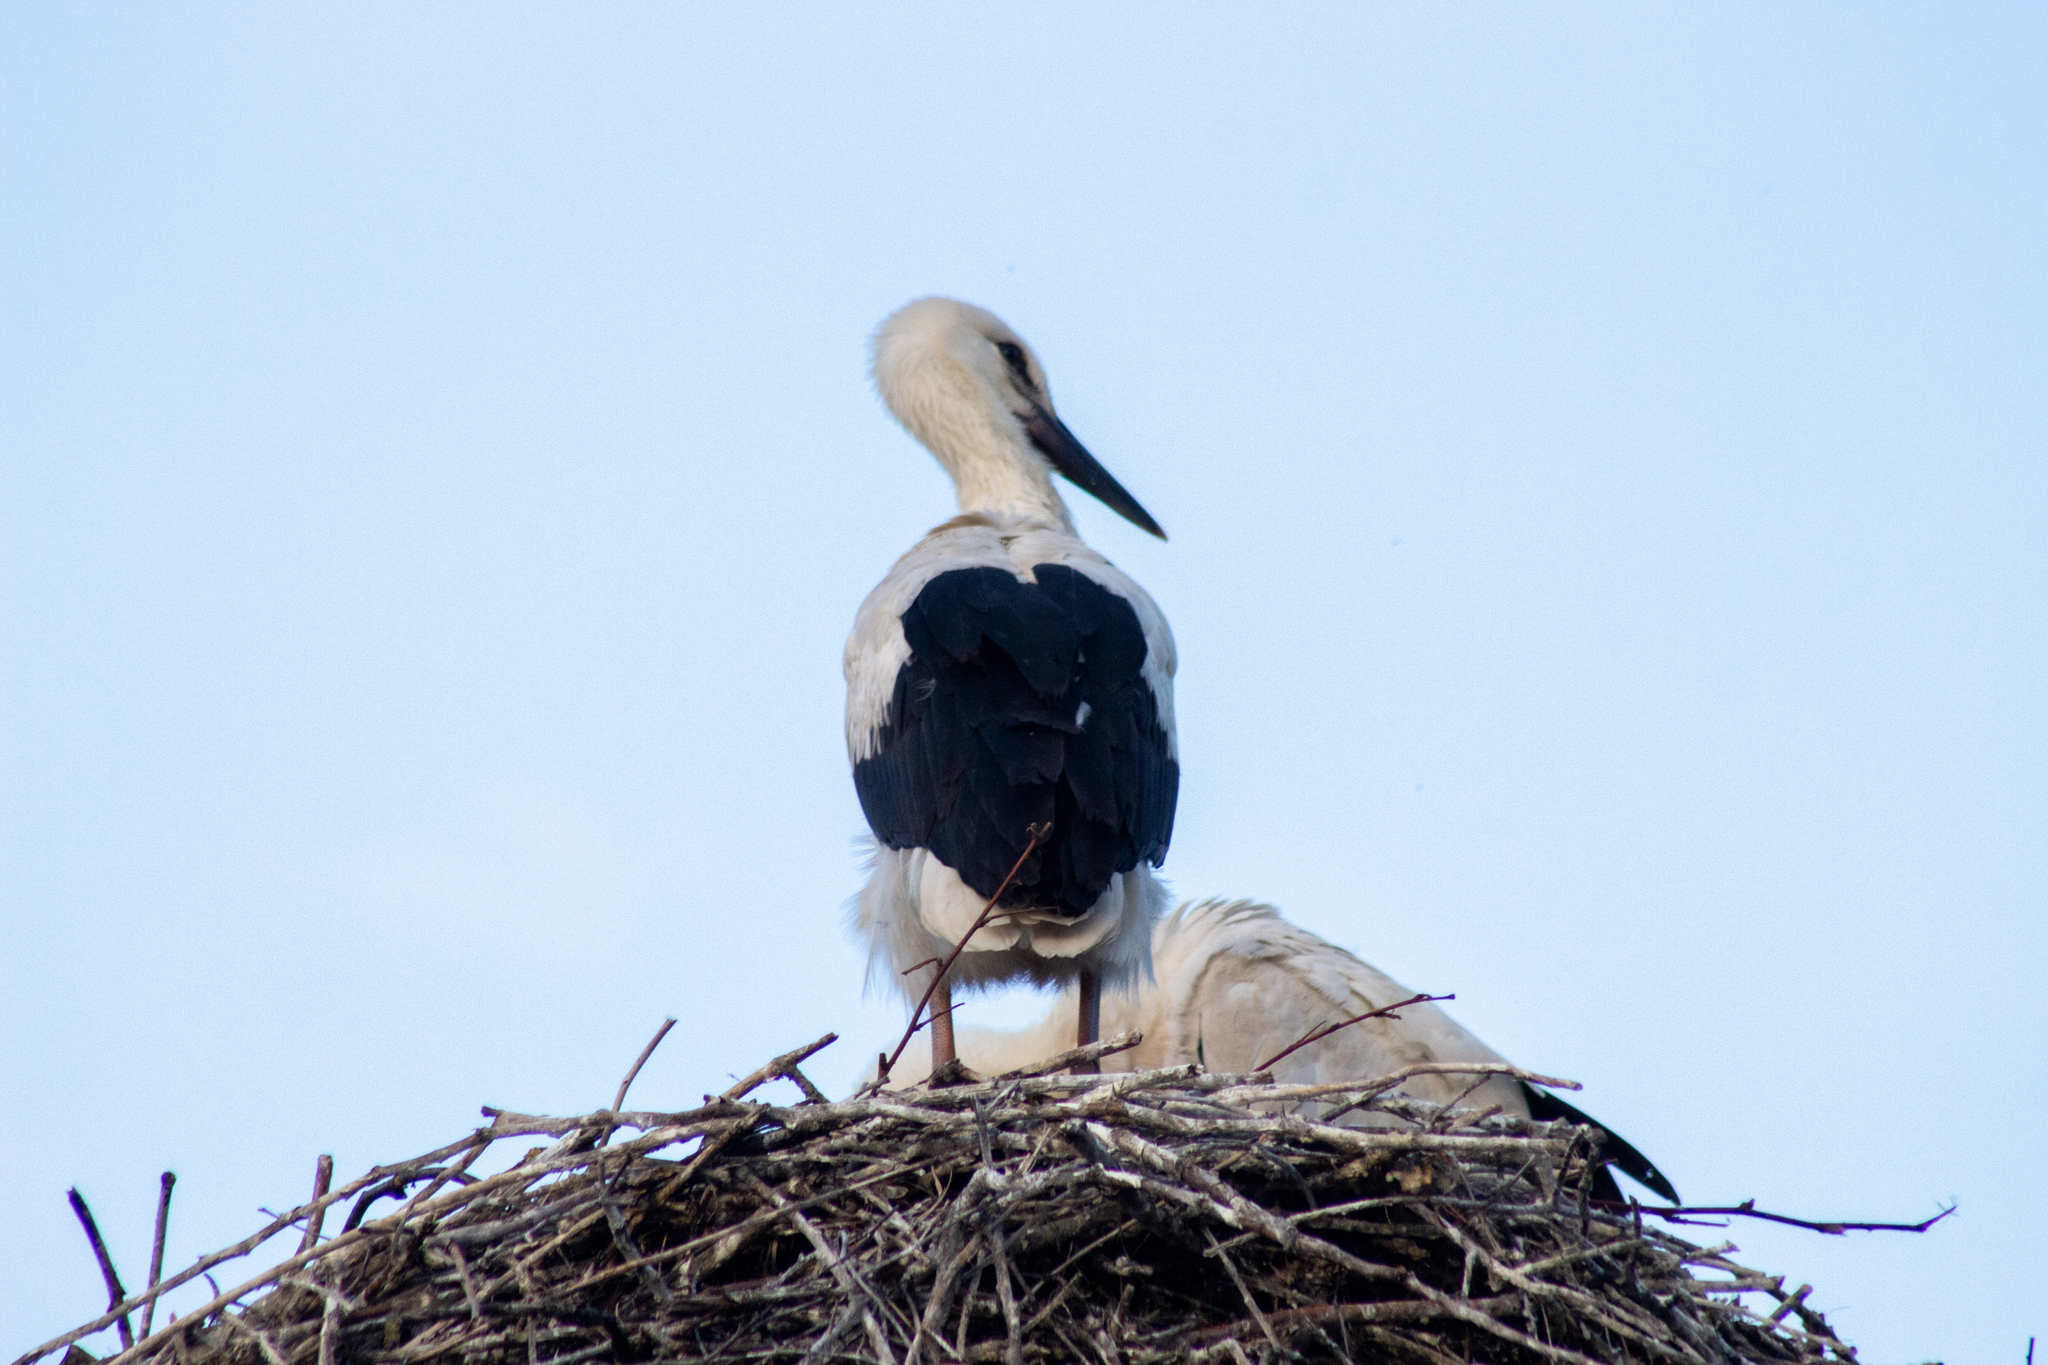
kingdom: Animalia
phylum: Chordata
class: Aves
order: Ciconiiformes
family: Ciconiidae
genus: Ciconia
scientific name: Ciconia ciconia
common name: White stork
